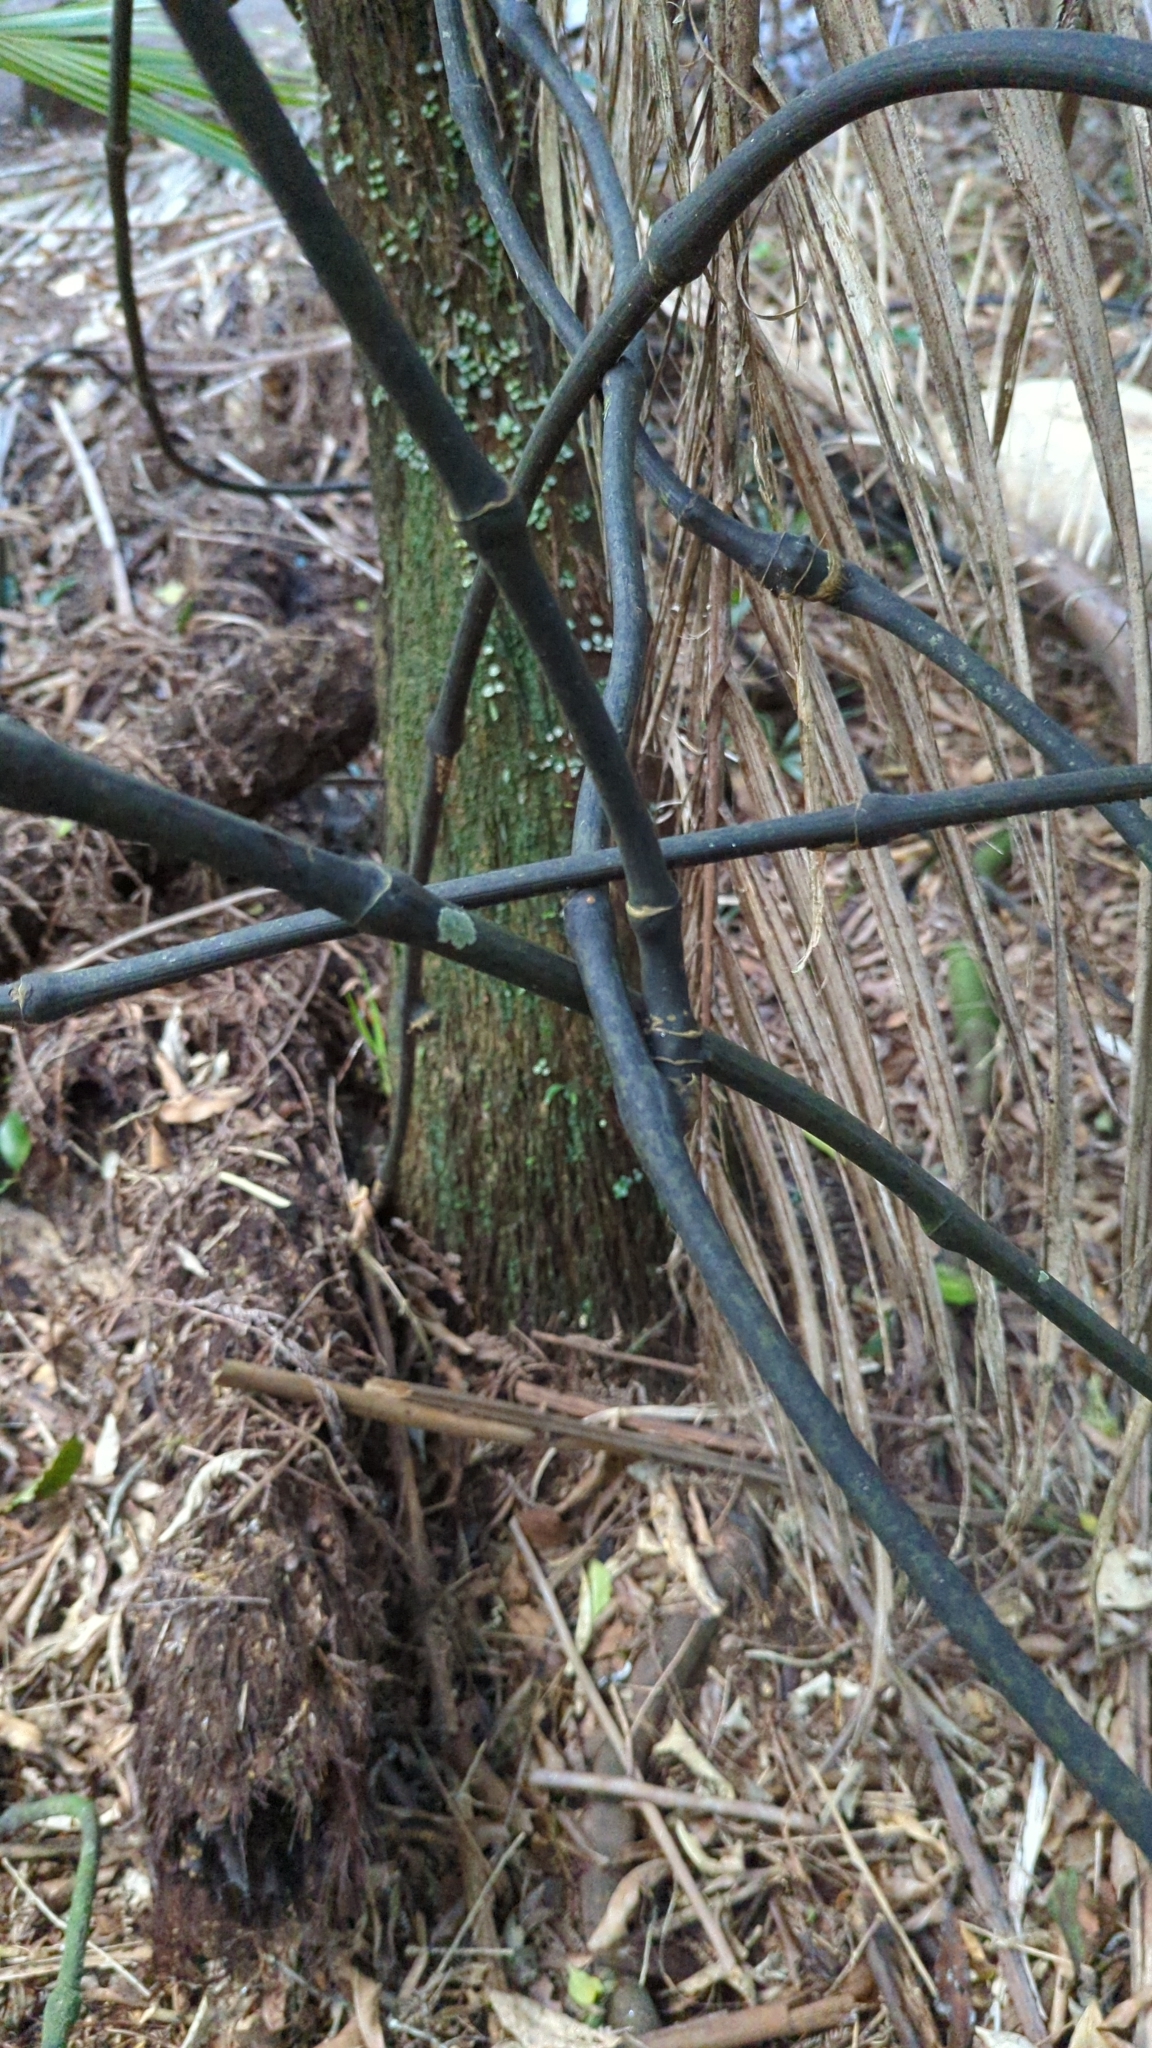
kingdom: Plantae
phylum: Tracheophyta
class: Liliopsida
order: Liliales
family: Ripogonaceae
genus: Ripogonum
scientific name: Ripogonum scandens
